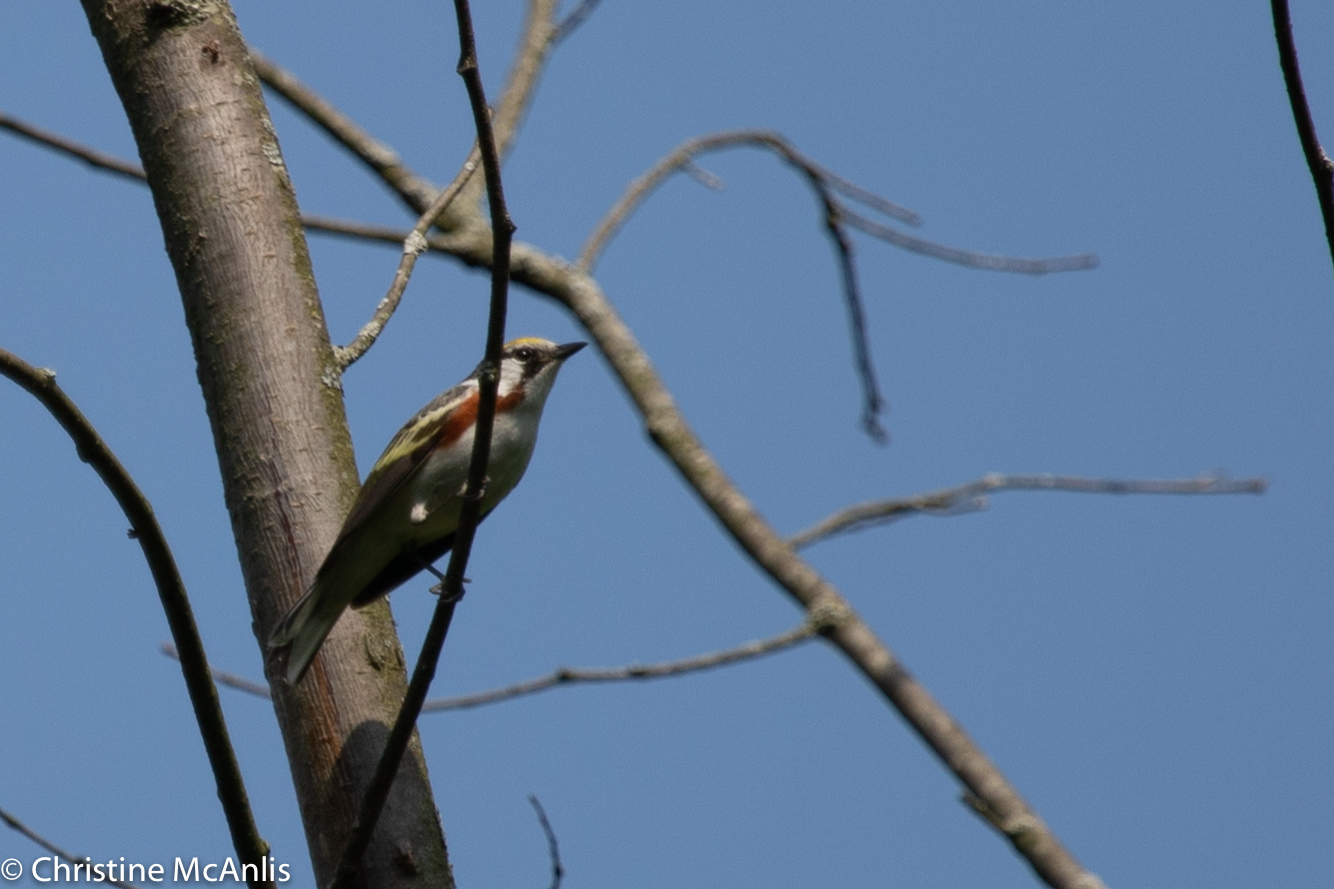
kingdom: Animalia
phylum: Chordata
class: Aves
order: Passeriformes
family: Parulidae
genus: Setophaga
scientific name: Setophaga pensylvanica
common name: Chestnut-sided warbler
